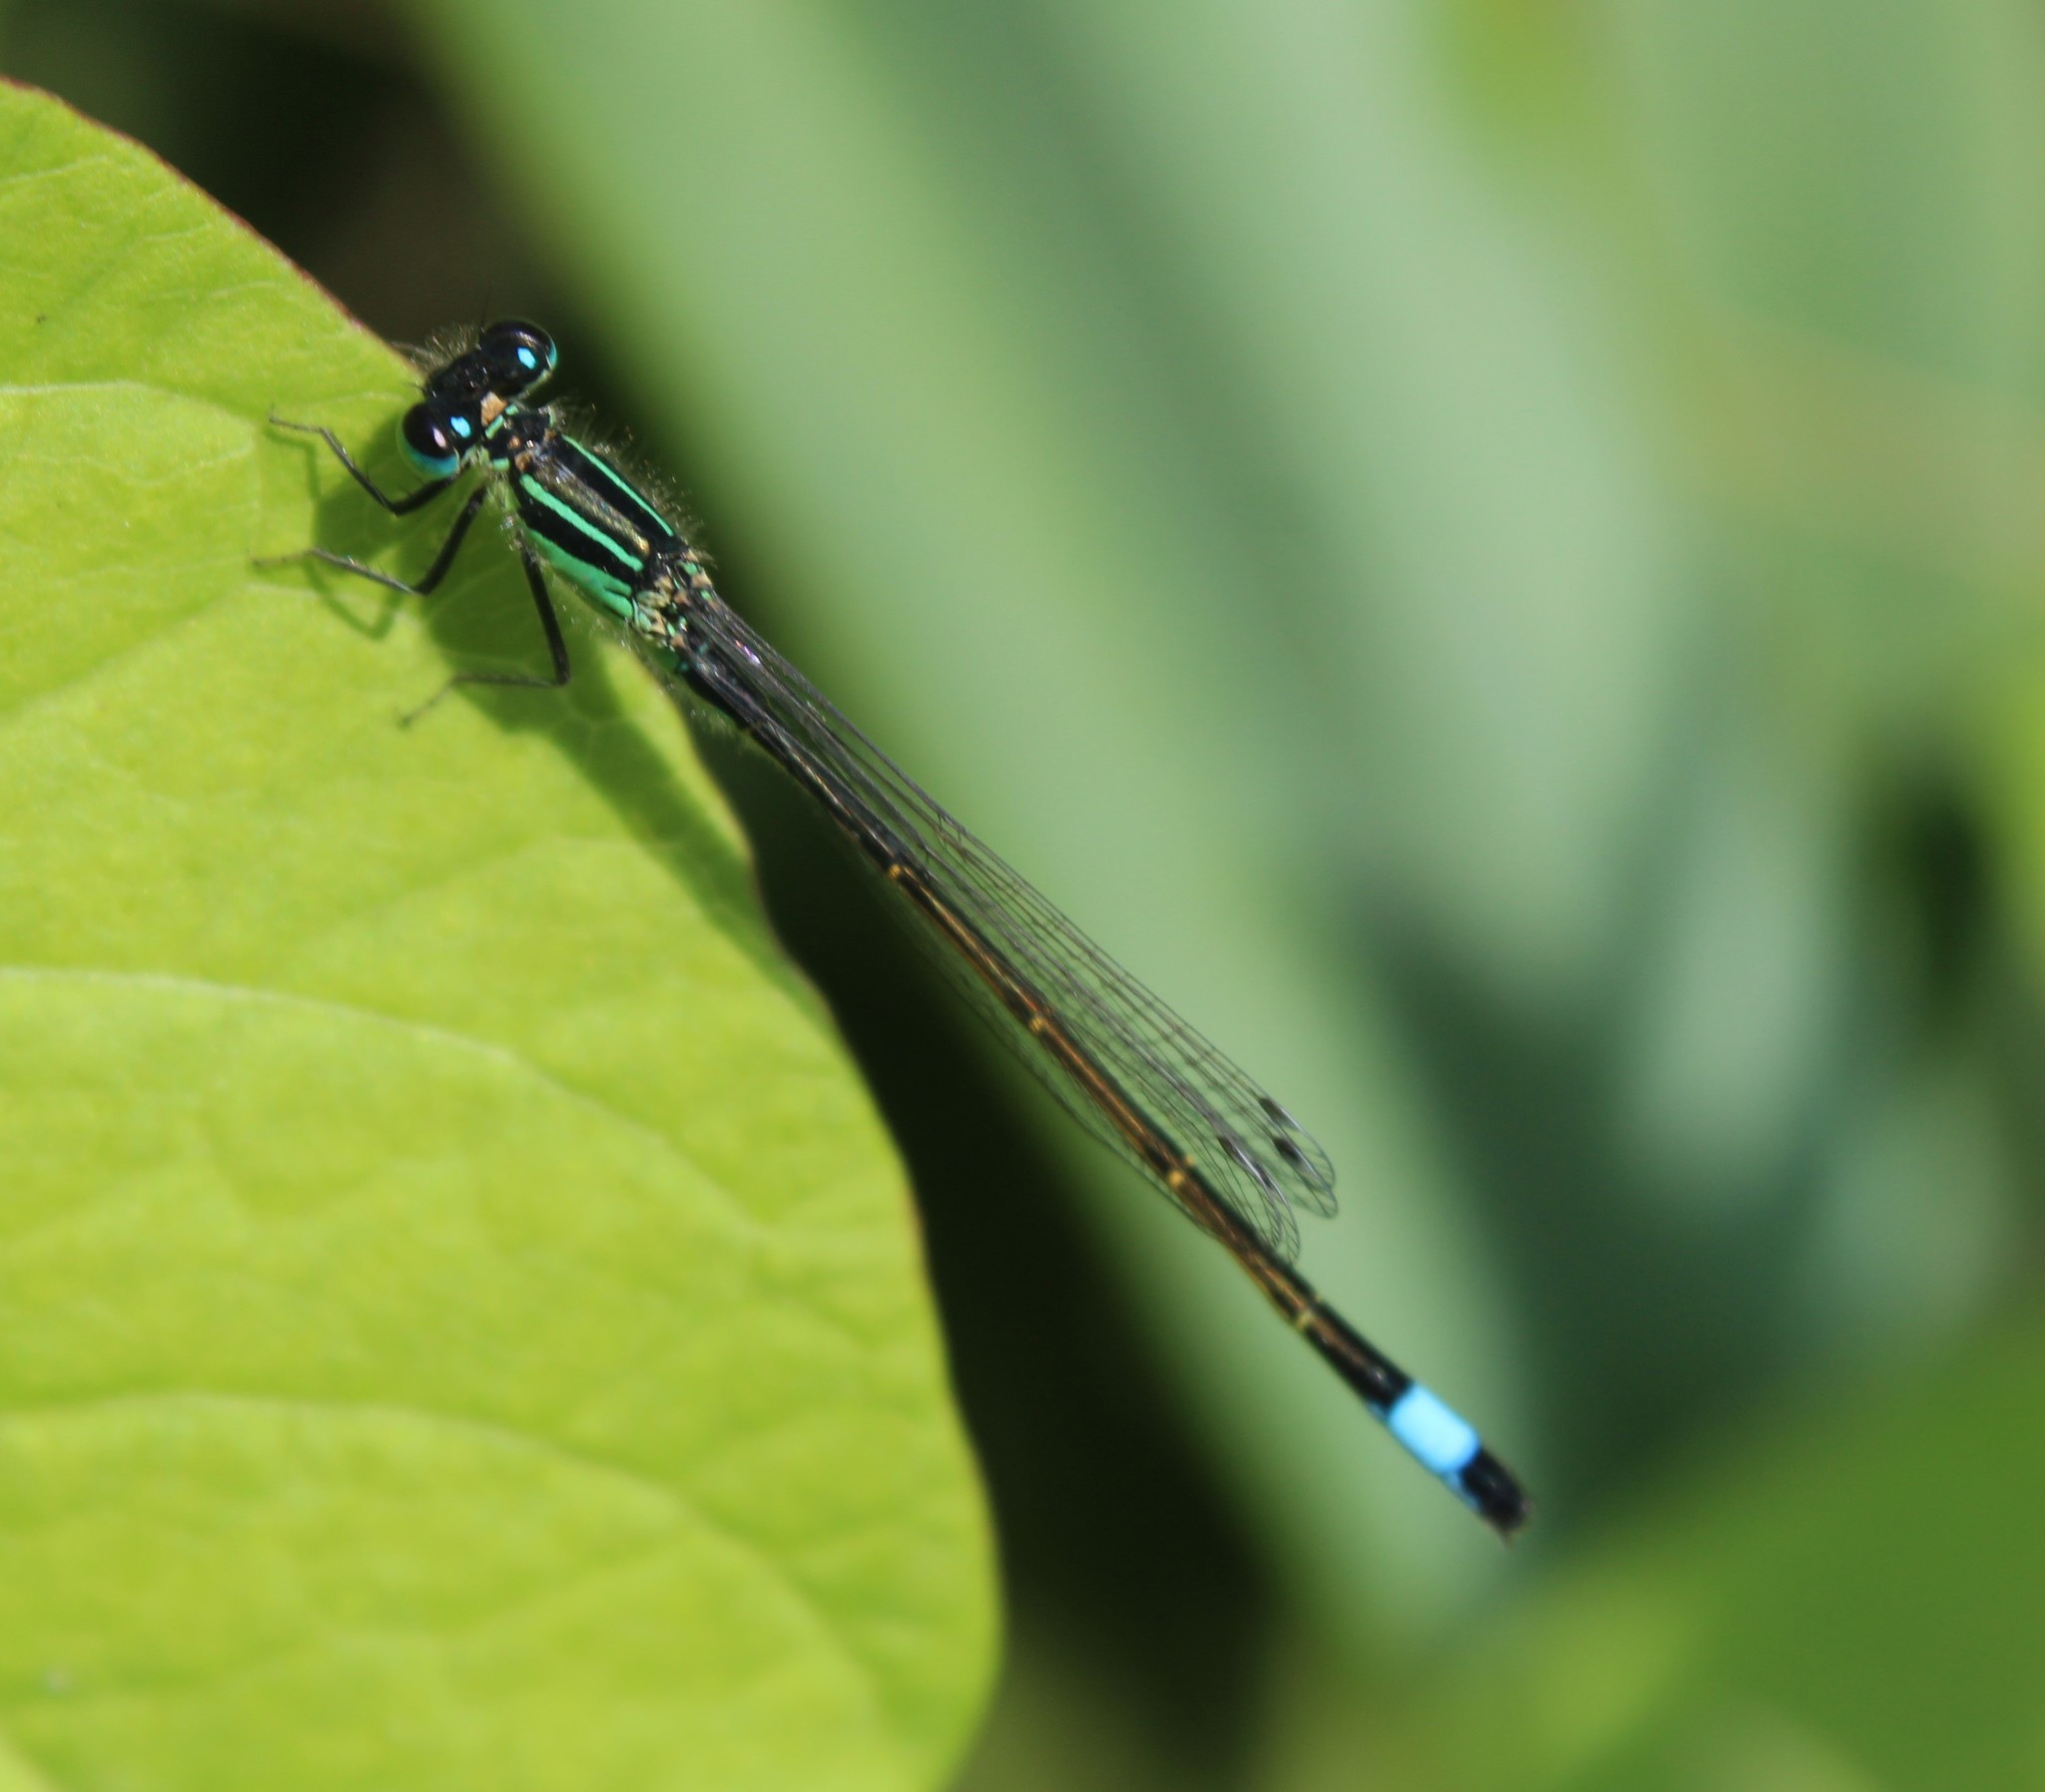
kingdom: Animalia
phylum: Arthropoda
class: Insecta
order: Odonata
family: Coenagrionidae
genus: Ischnura
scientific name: Ischnura elegans
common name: Blue-tailed damselfly
